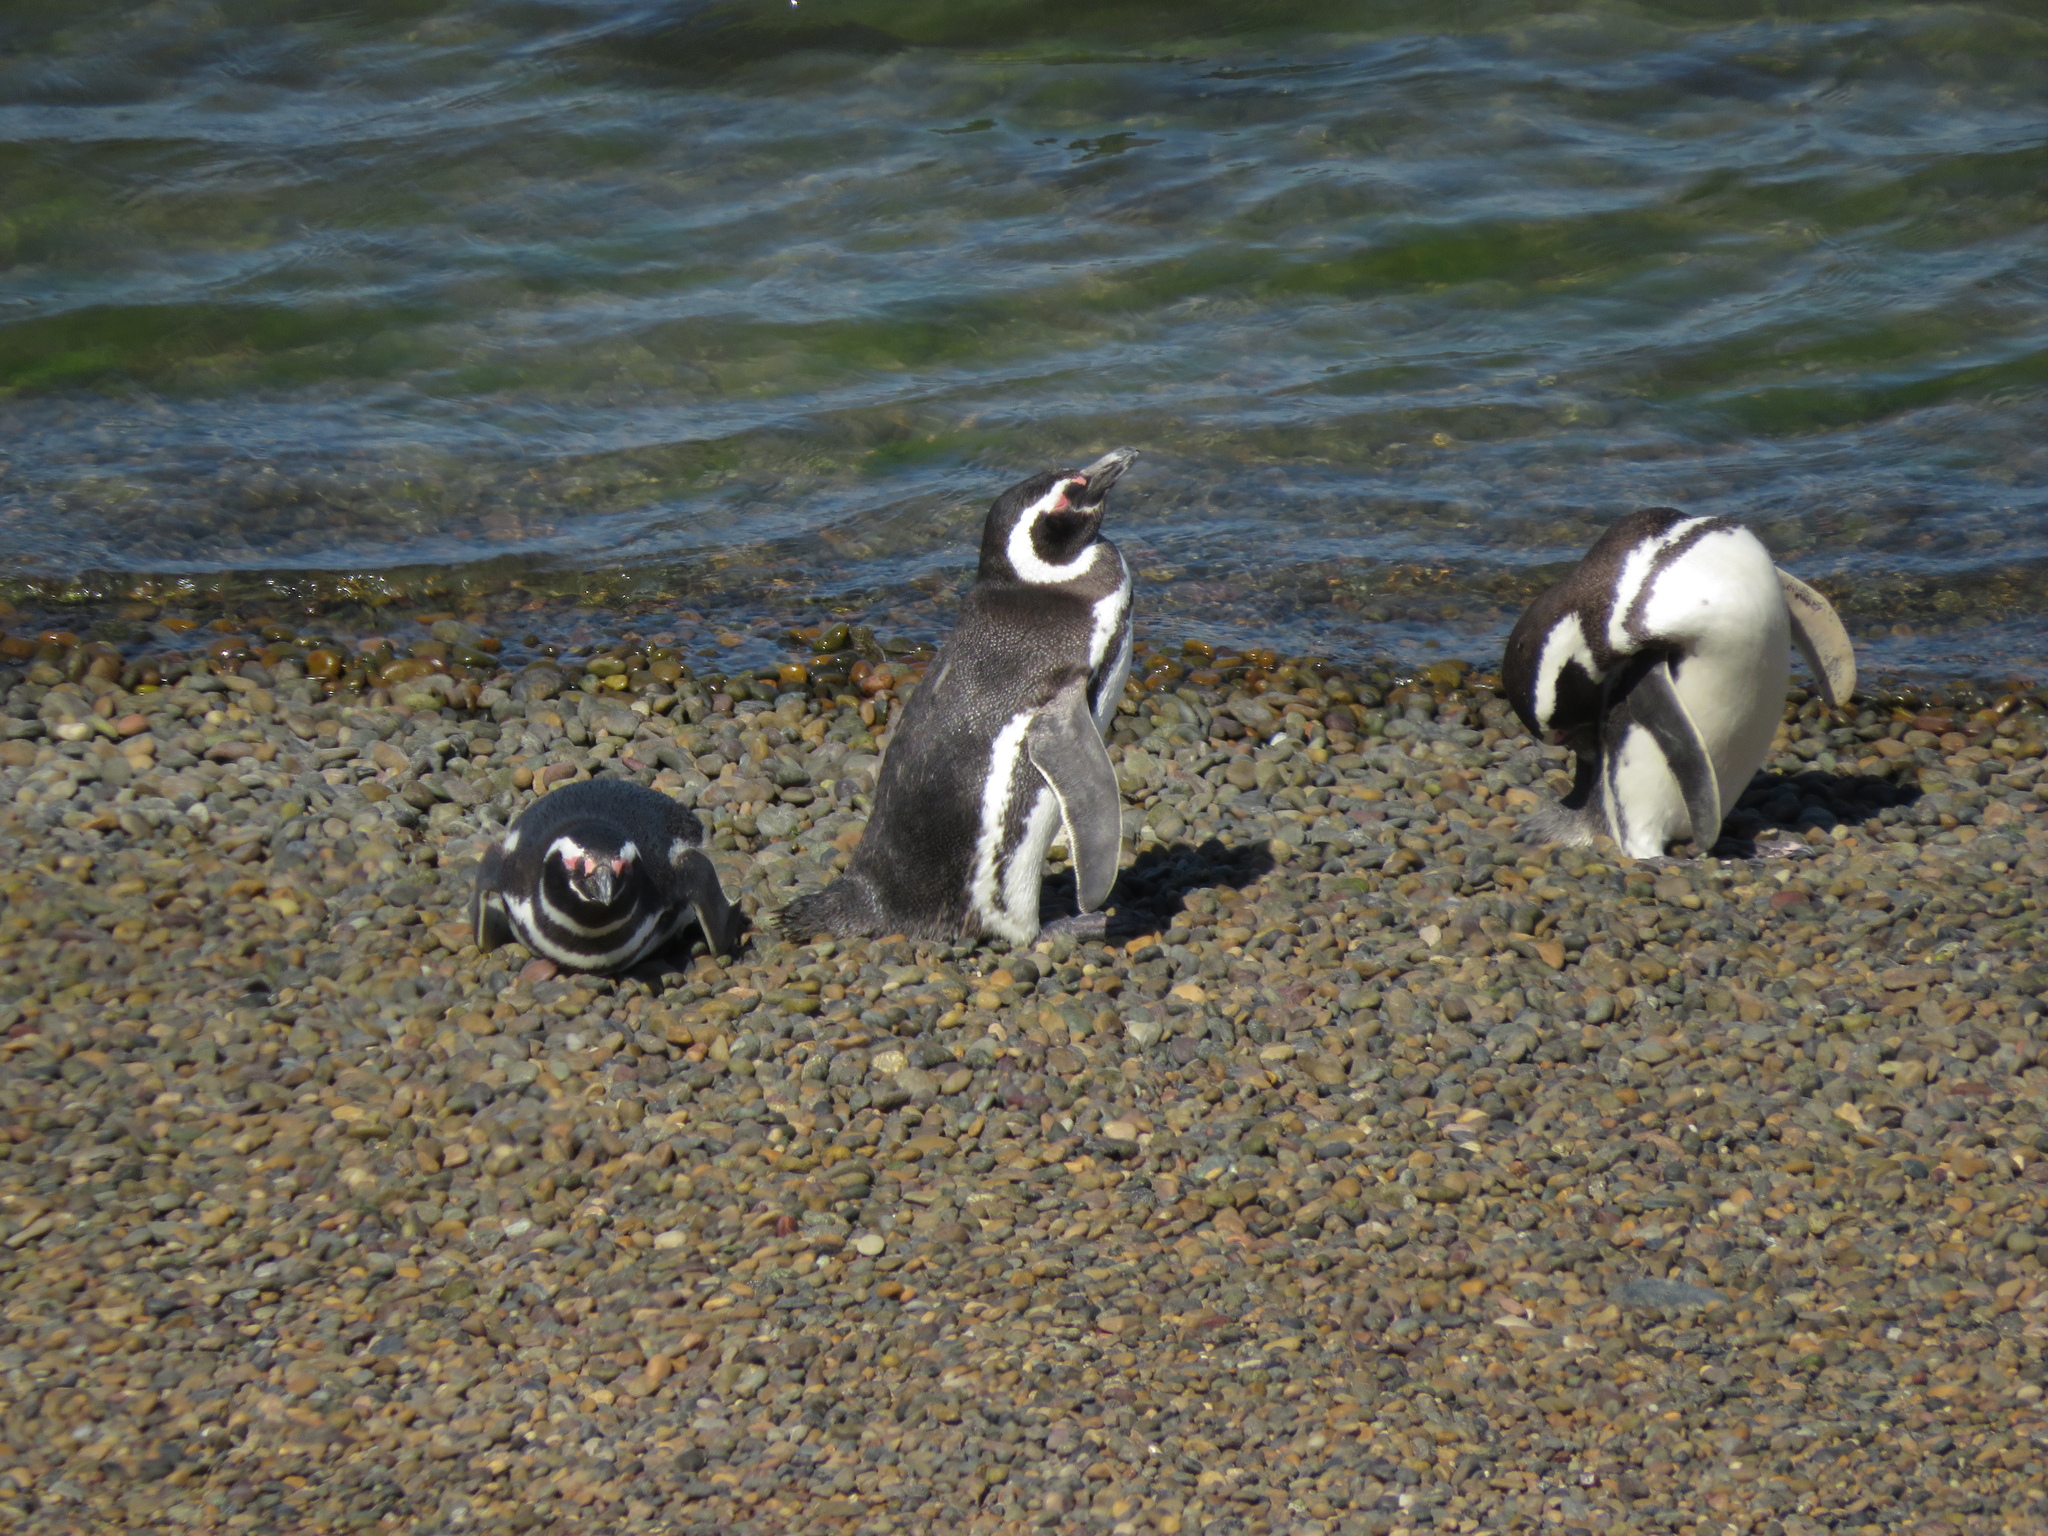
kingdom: Animalia
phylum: Chordata
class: Aves
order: Sphenisciformes
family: Spheniscidae
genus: Spheniscus
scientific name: Spheniscus magellanicus
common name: Magellanic penguin
